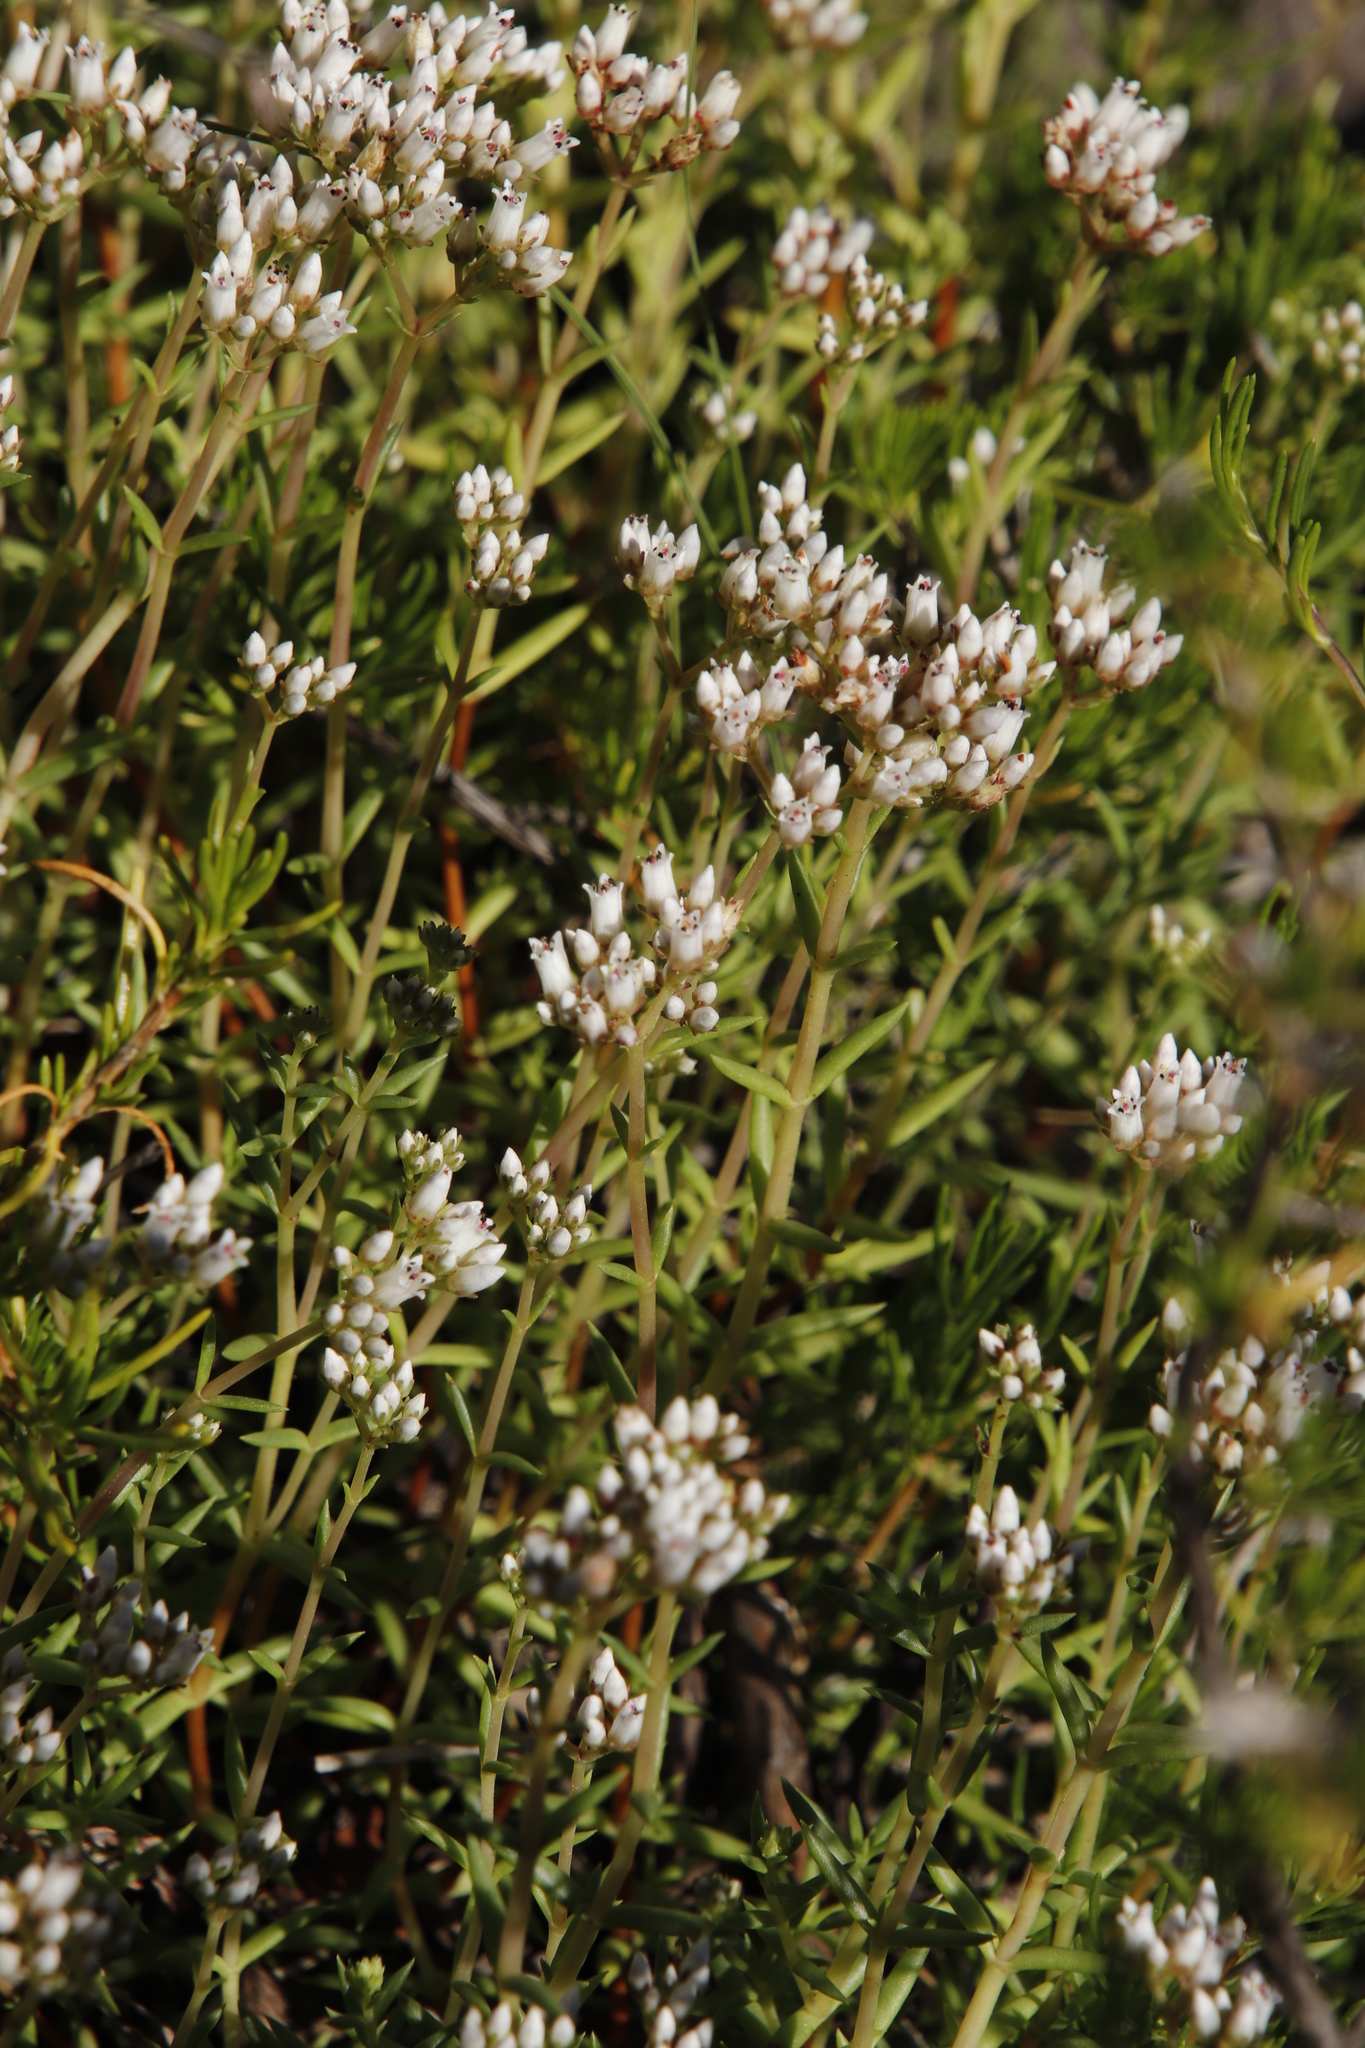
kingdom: Plantae
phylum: Tracheophyta
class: Magnoliopsida
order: Saxifragales
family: Crassulaceae
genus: Crassula
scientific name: Crassula dependens
